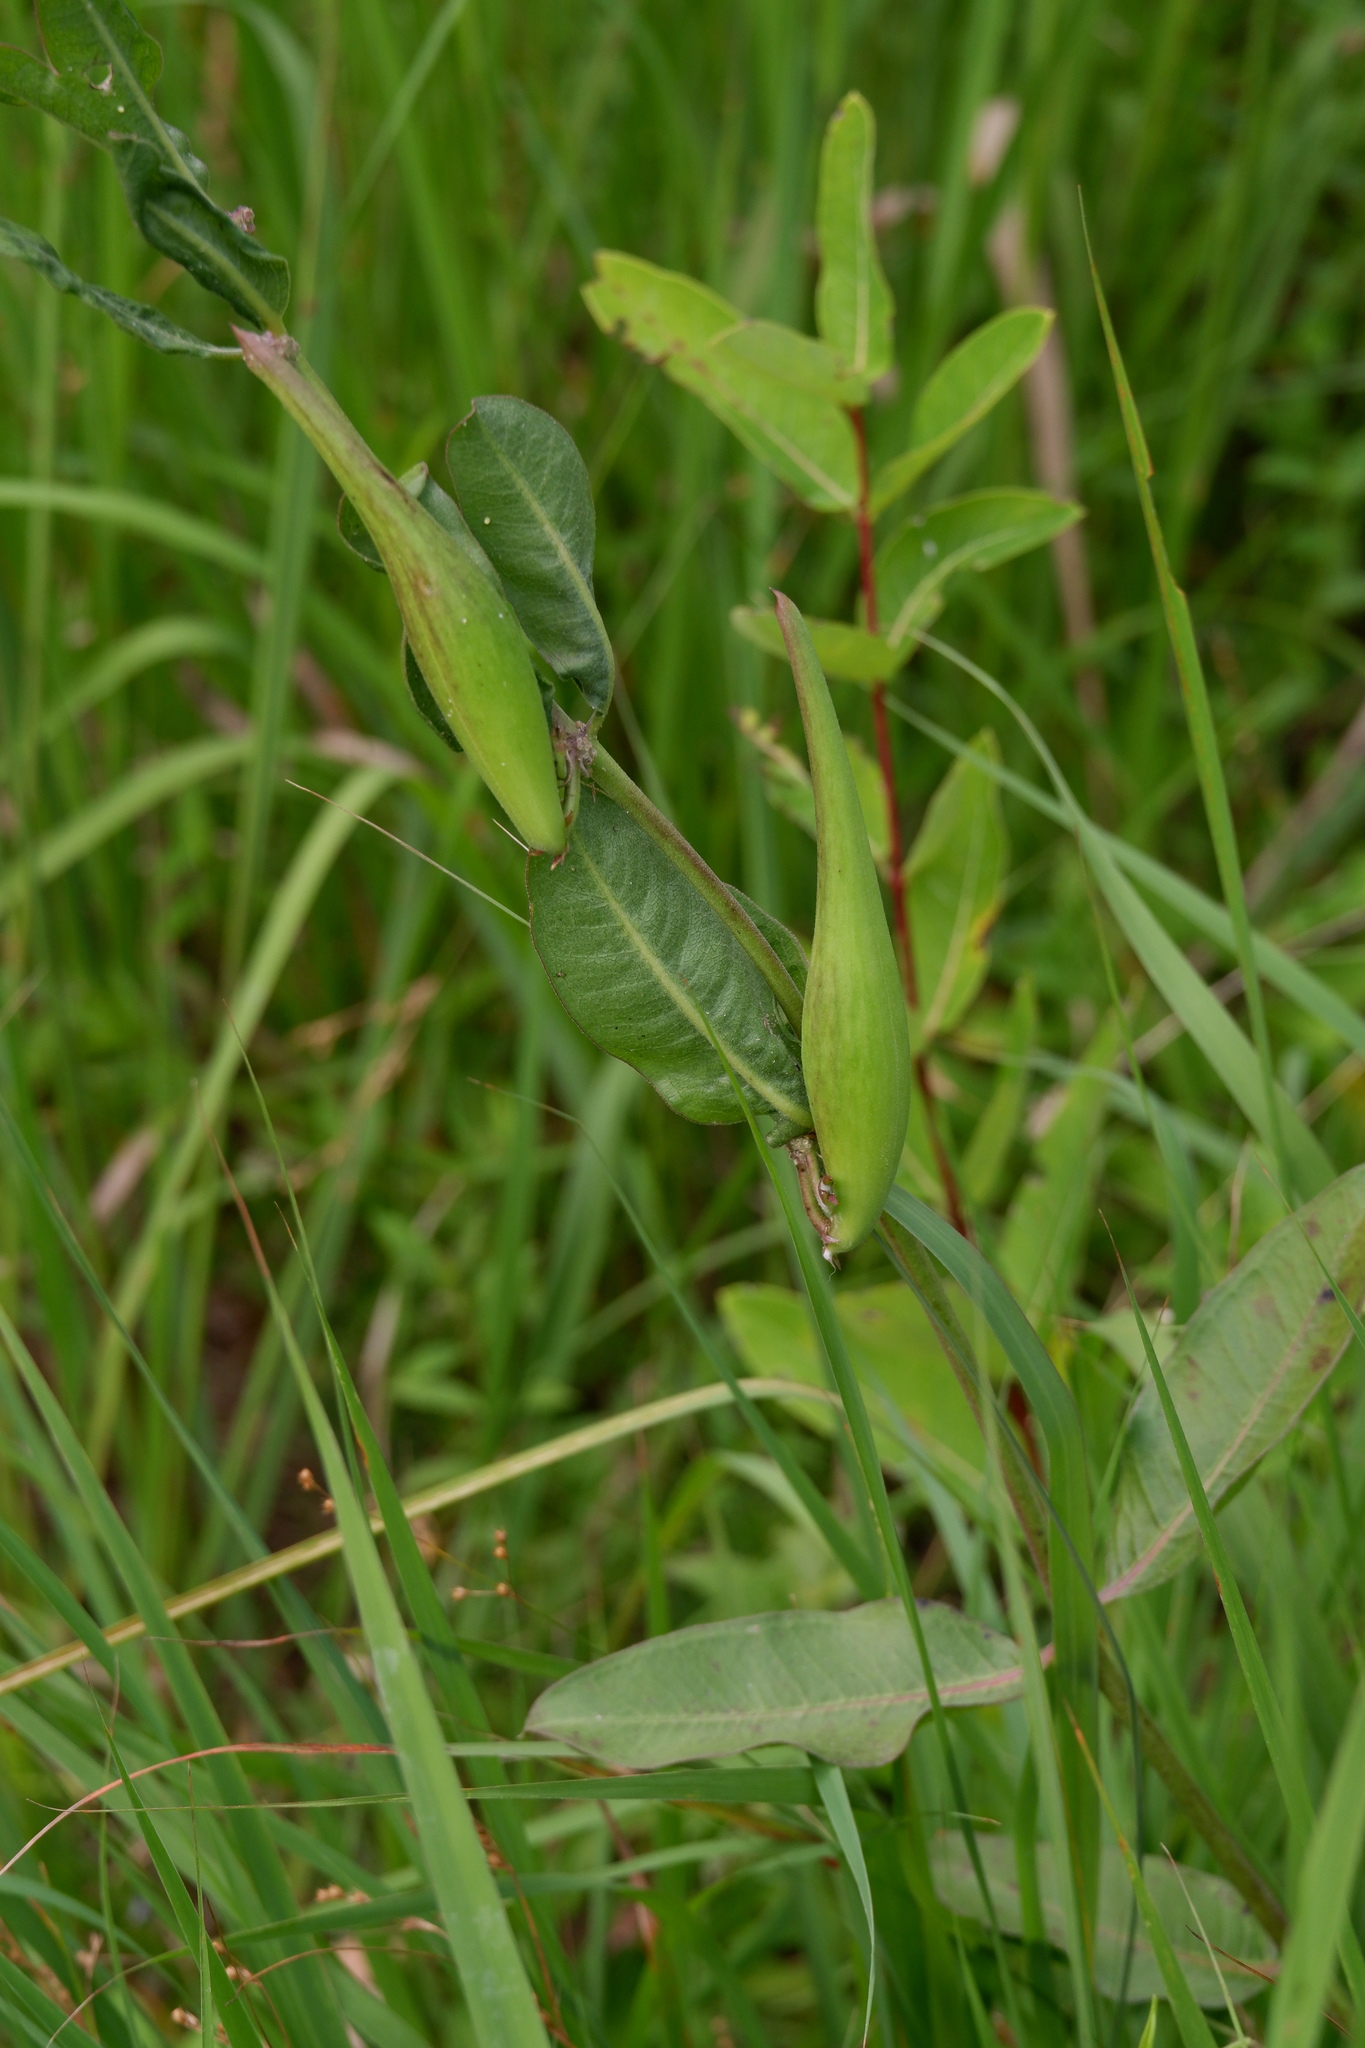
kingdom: Plantae
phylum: Tracheophyta
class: Magnoliopsida
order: Gentianales
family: Apocynaceae
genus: Asclepias
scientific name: Asclepias viridiflora
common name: Green comet milkweed
